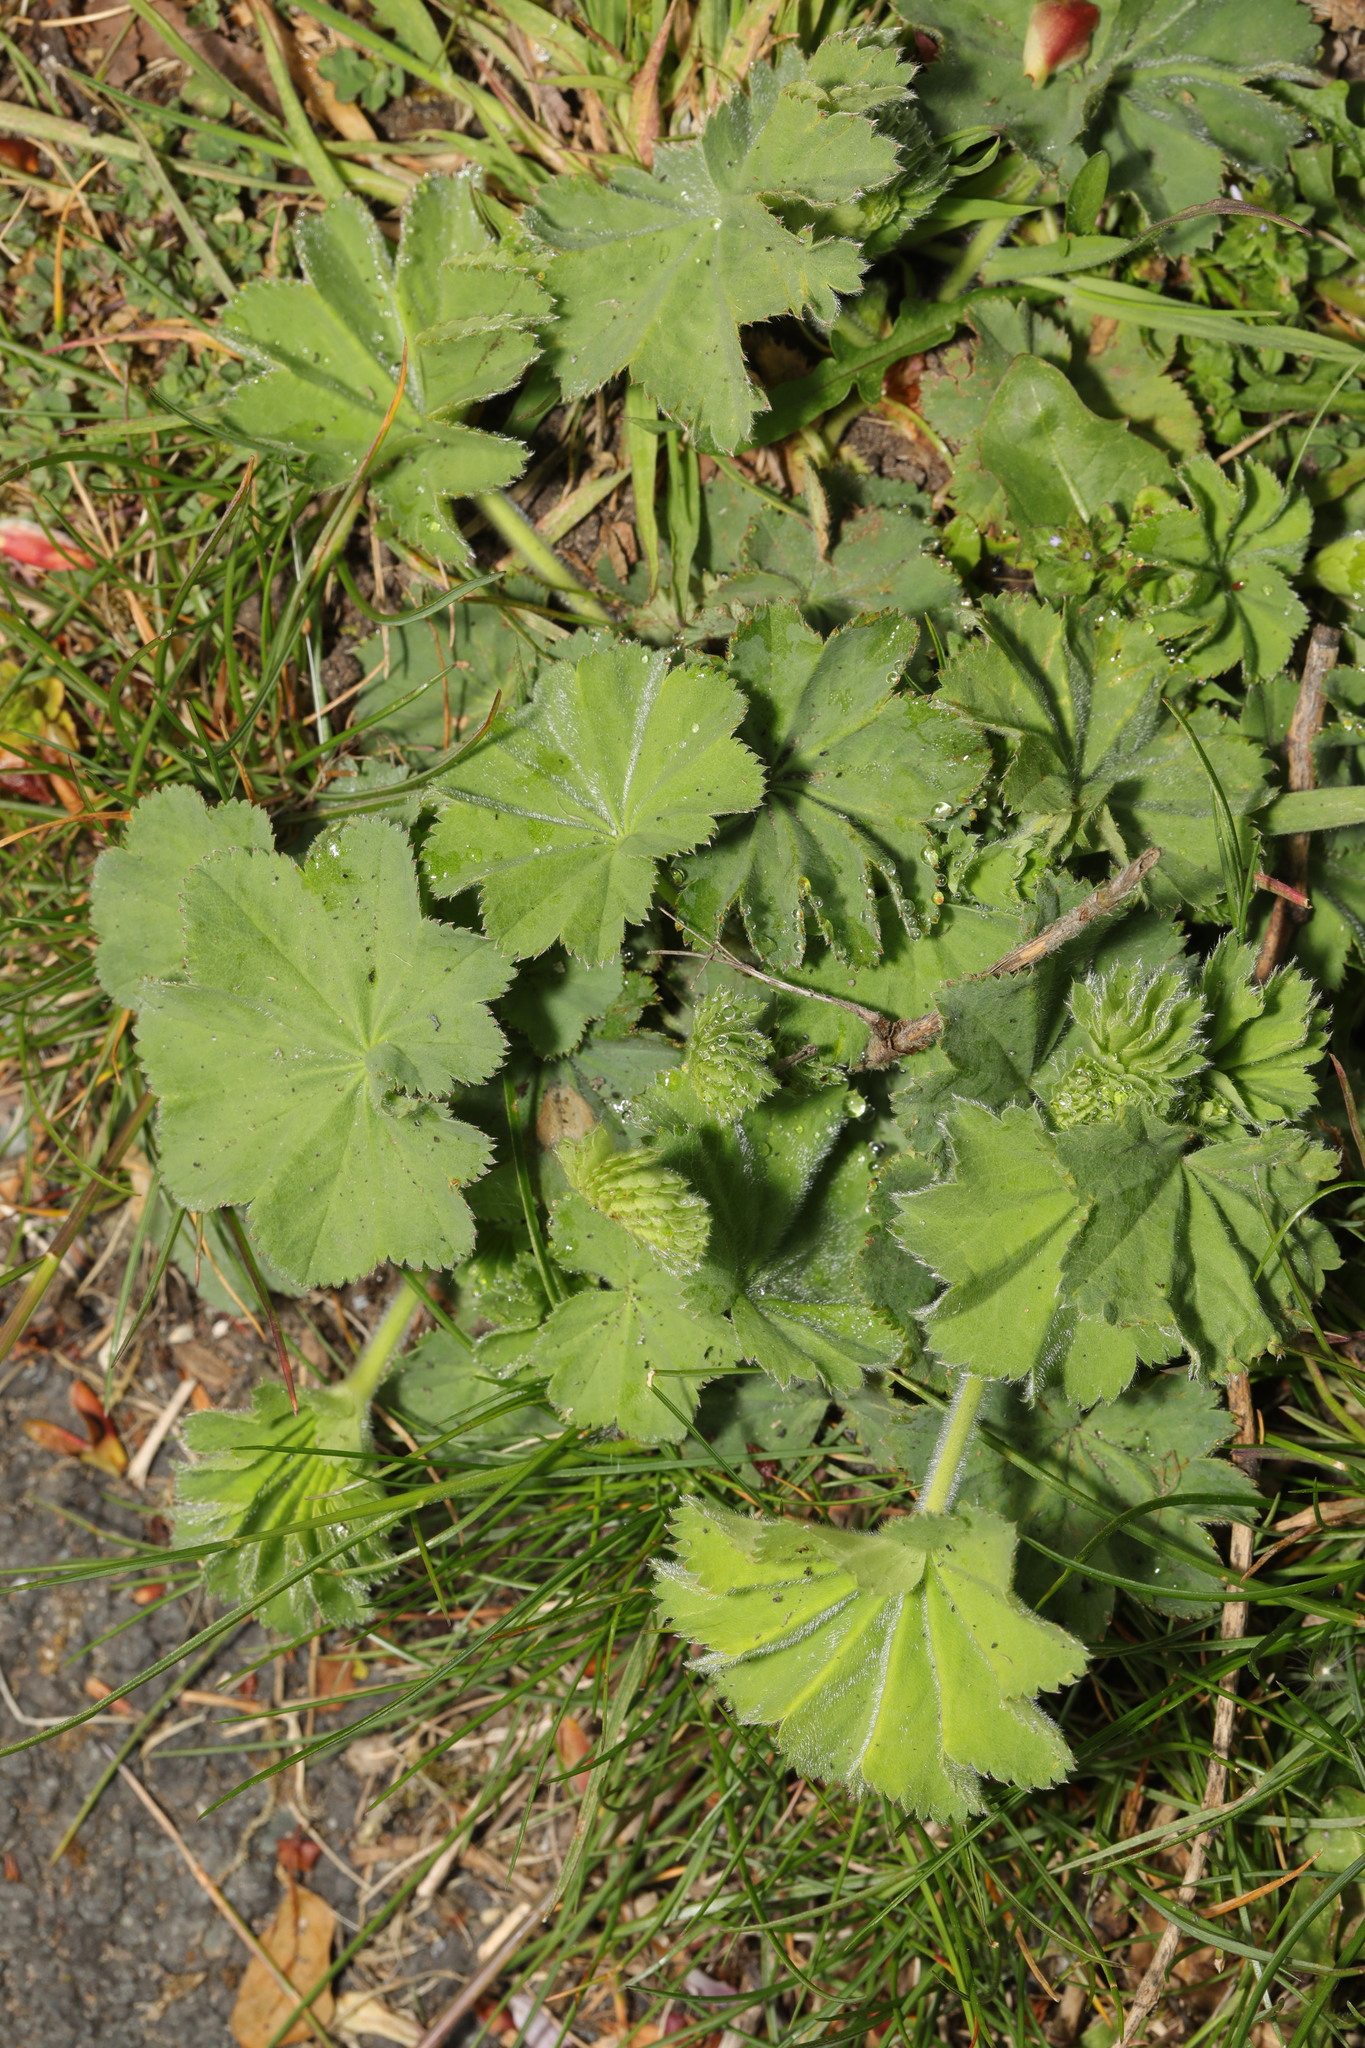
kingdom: Plantae
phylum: Tracheophyta
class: Magnoliopsida
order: Rosales
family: Rosaceae
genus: Alchemilla
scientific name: Alchemilla mollis
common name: Lady's-mantle
